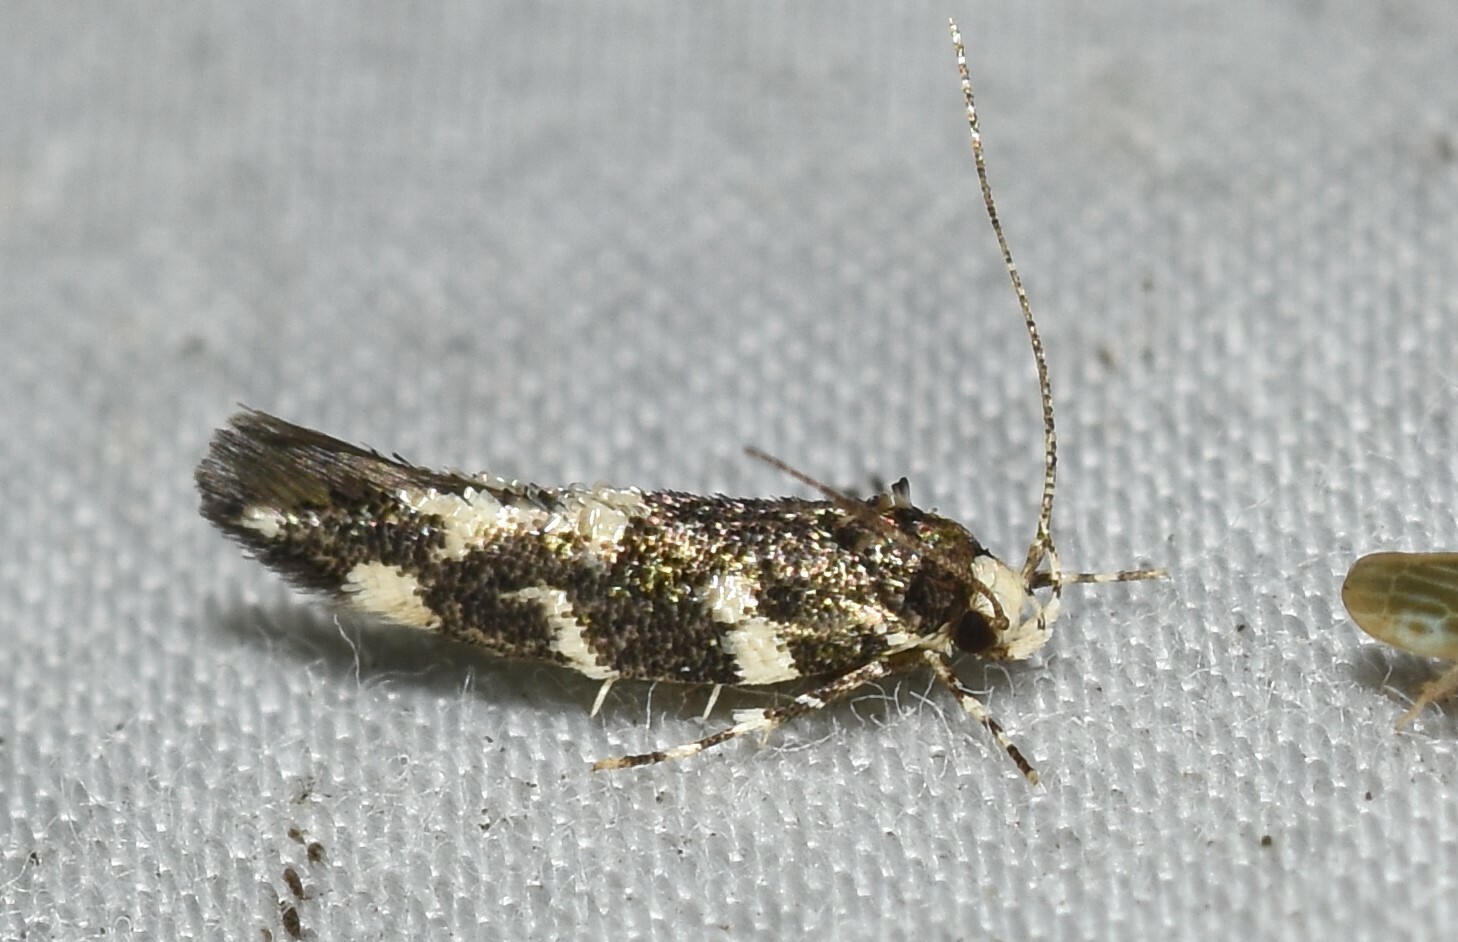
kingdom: Animalia
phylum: Arthropoda
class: Insecta
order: Lepidoptera
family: Cosmopterigidae
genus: Eteobalea
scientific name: Eteobalea
